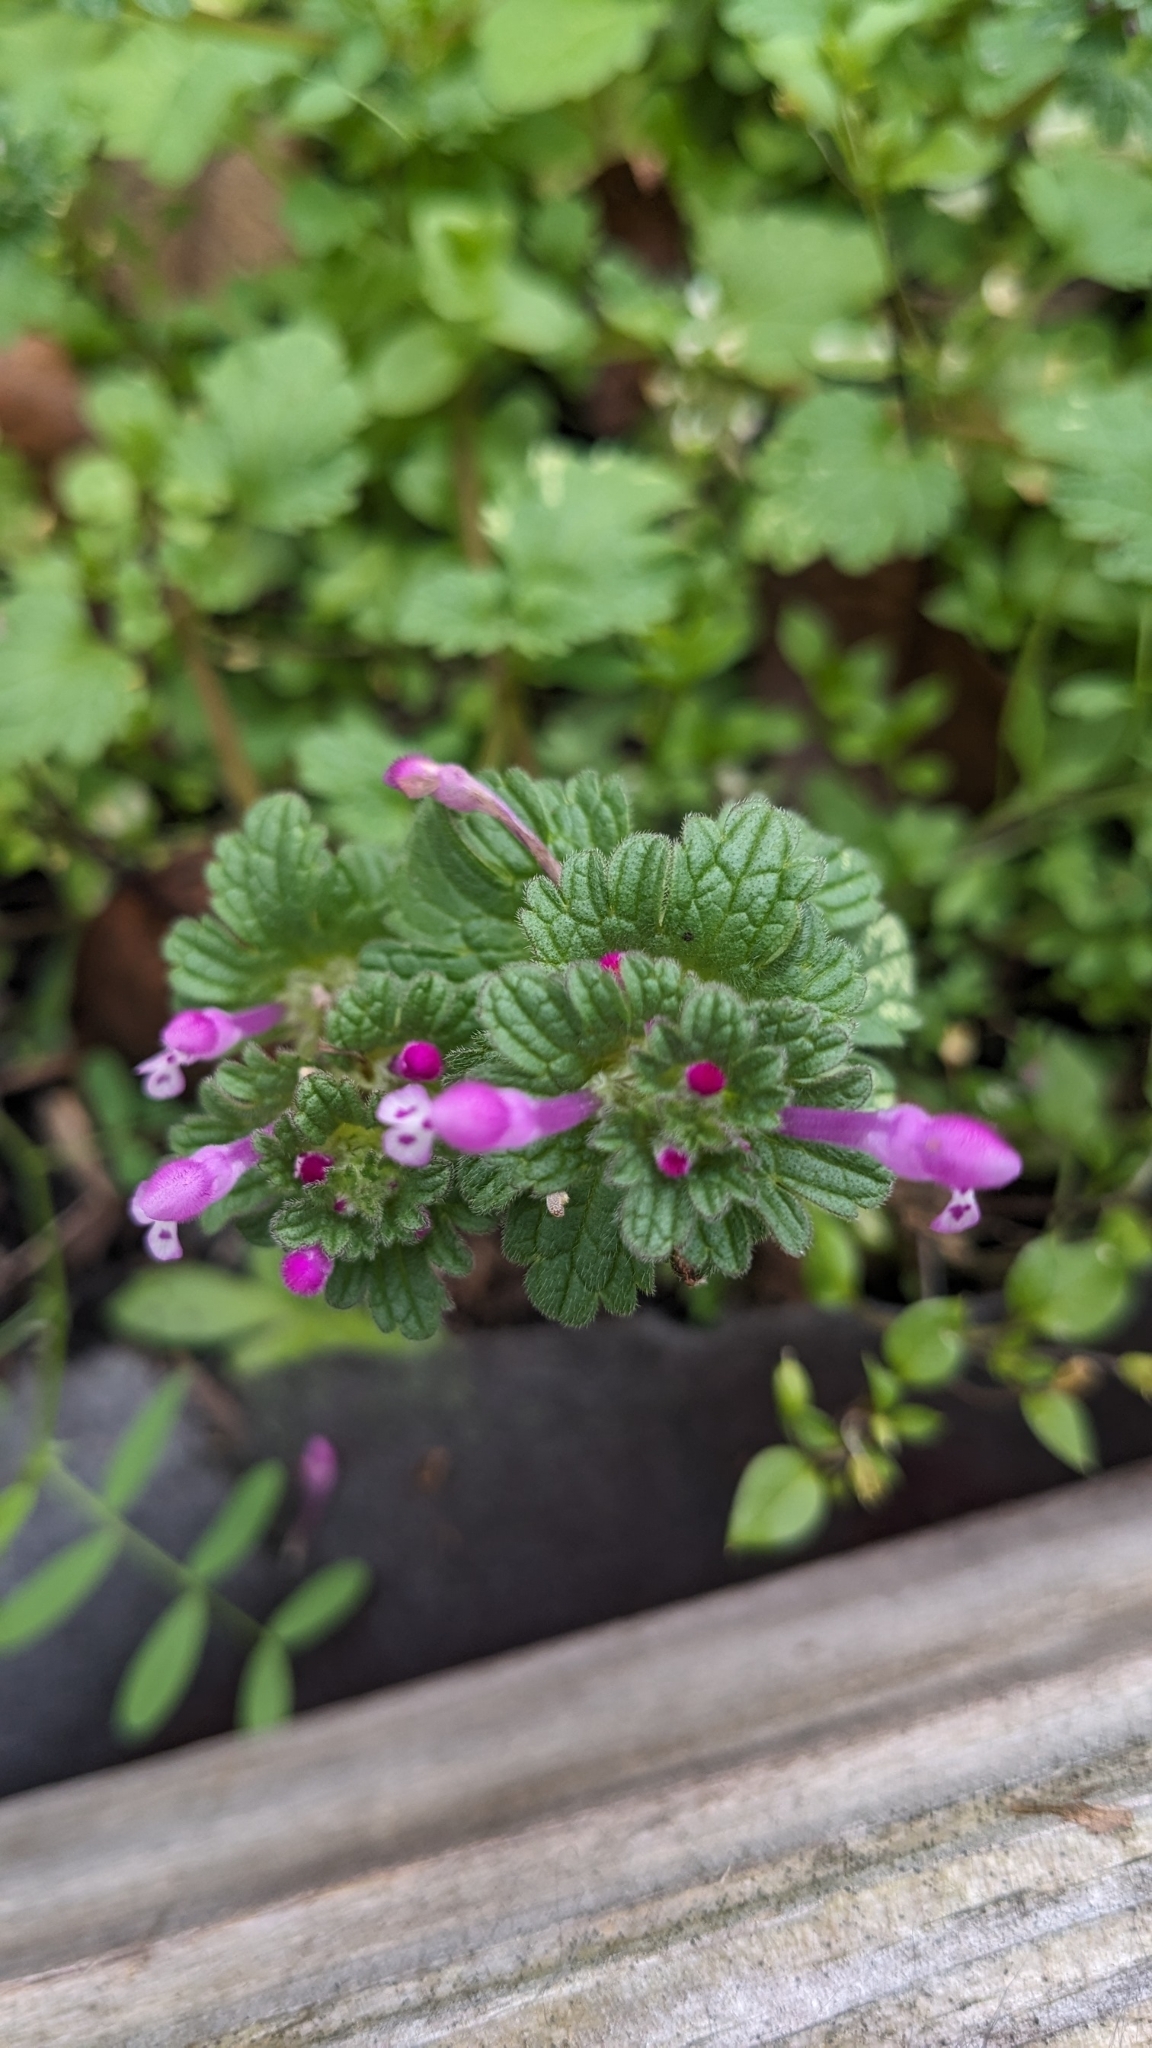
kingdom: Plantae
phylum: Tracheophyta
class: Magnoliopsida
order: Lamiales
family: Lamiaceae
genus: Lamium
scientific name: Lamium amplexicaule
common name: Henbit dead-nettle
